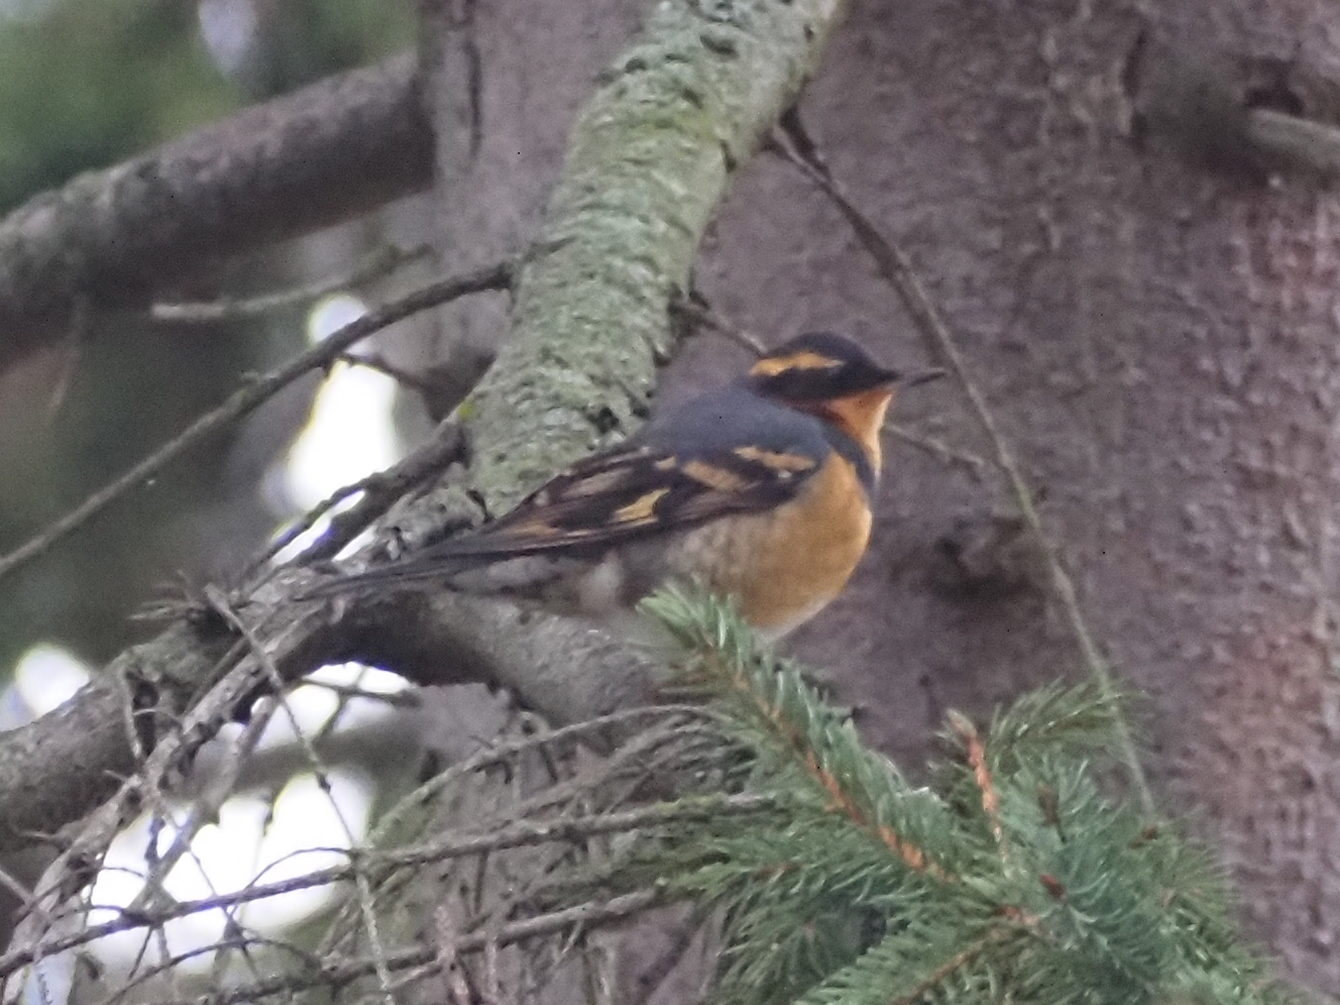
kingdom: Animalia
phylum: Chordata
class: Aves
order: Passeriformes
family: Turdidae
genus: Ixoreus
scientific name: Ixoreus naevius
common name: Varied thrush
